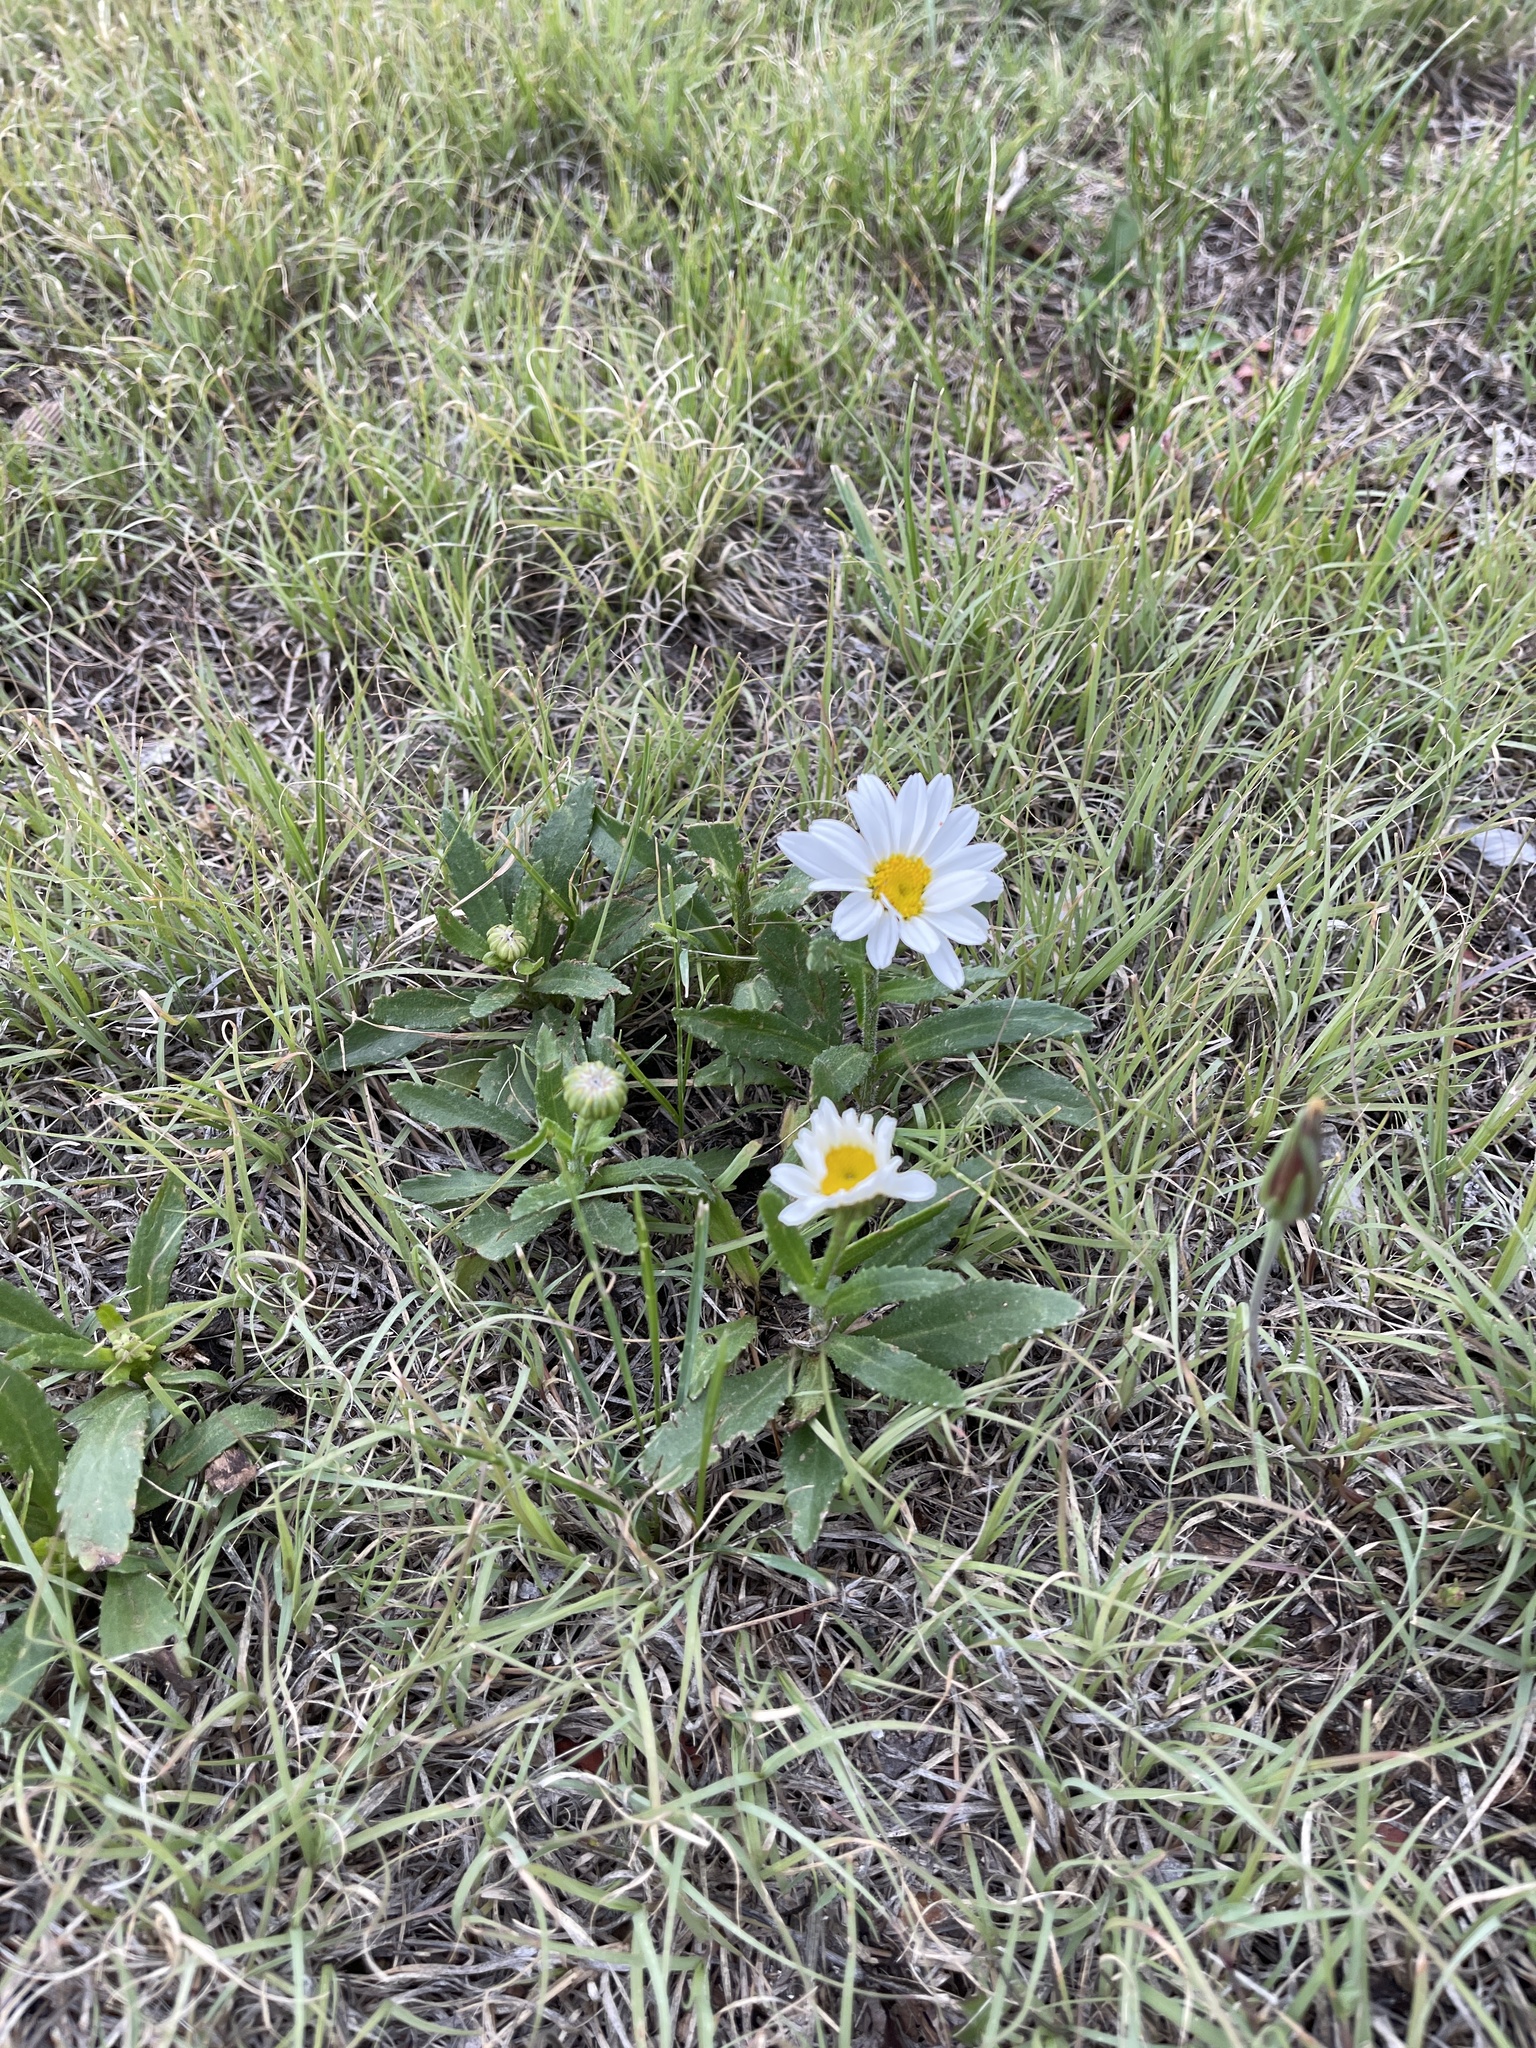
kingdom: Plantae
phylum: Tracheophyta
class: Magnoliopsida
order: Asterales
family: Asteraceae
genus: Melampodium
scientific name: Melampodium leucanthum
